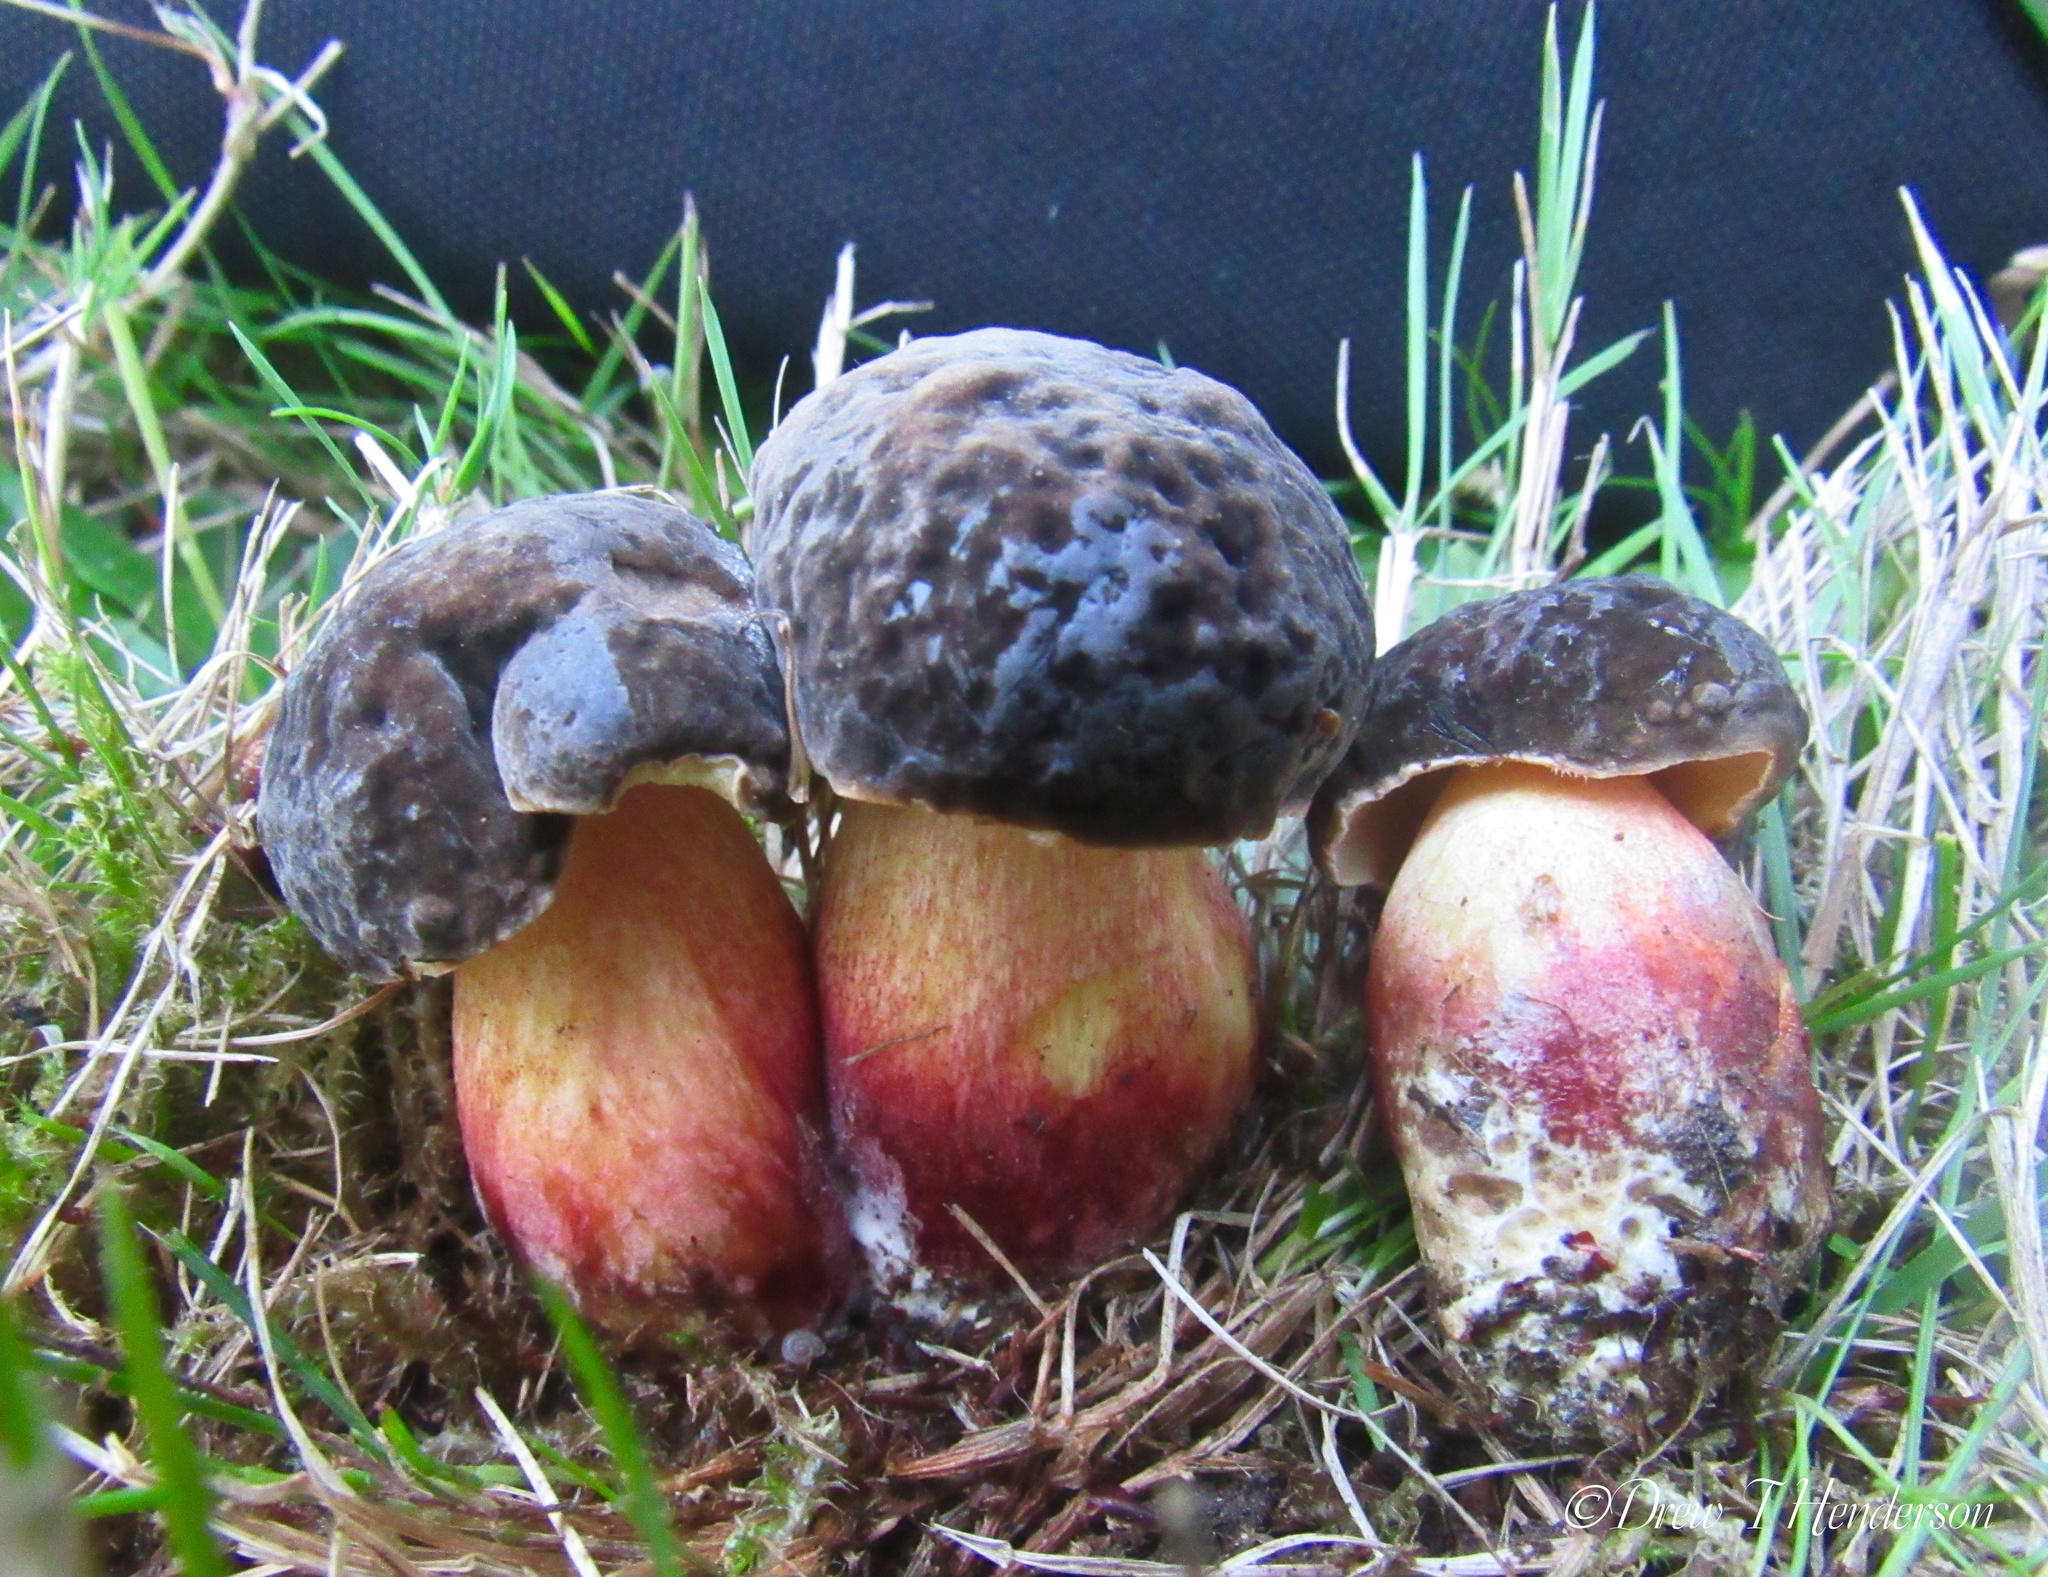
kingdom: Fungi
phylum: Basidiomycota
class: Agaricomycetes
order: Boletales
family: Boletaceae
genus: Xerocomellus
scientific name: Xerocomellus atropurpureus
